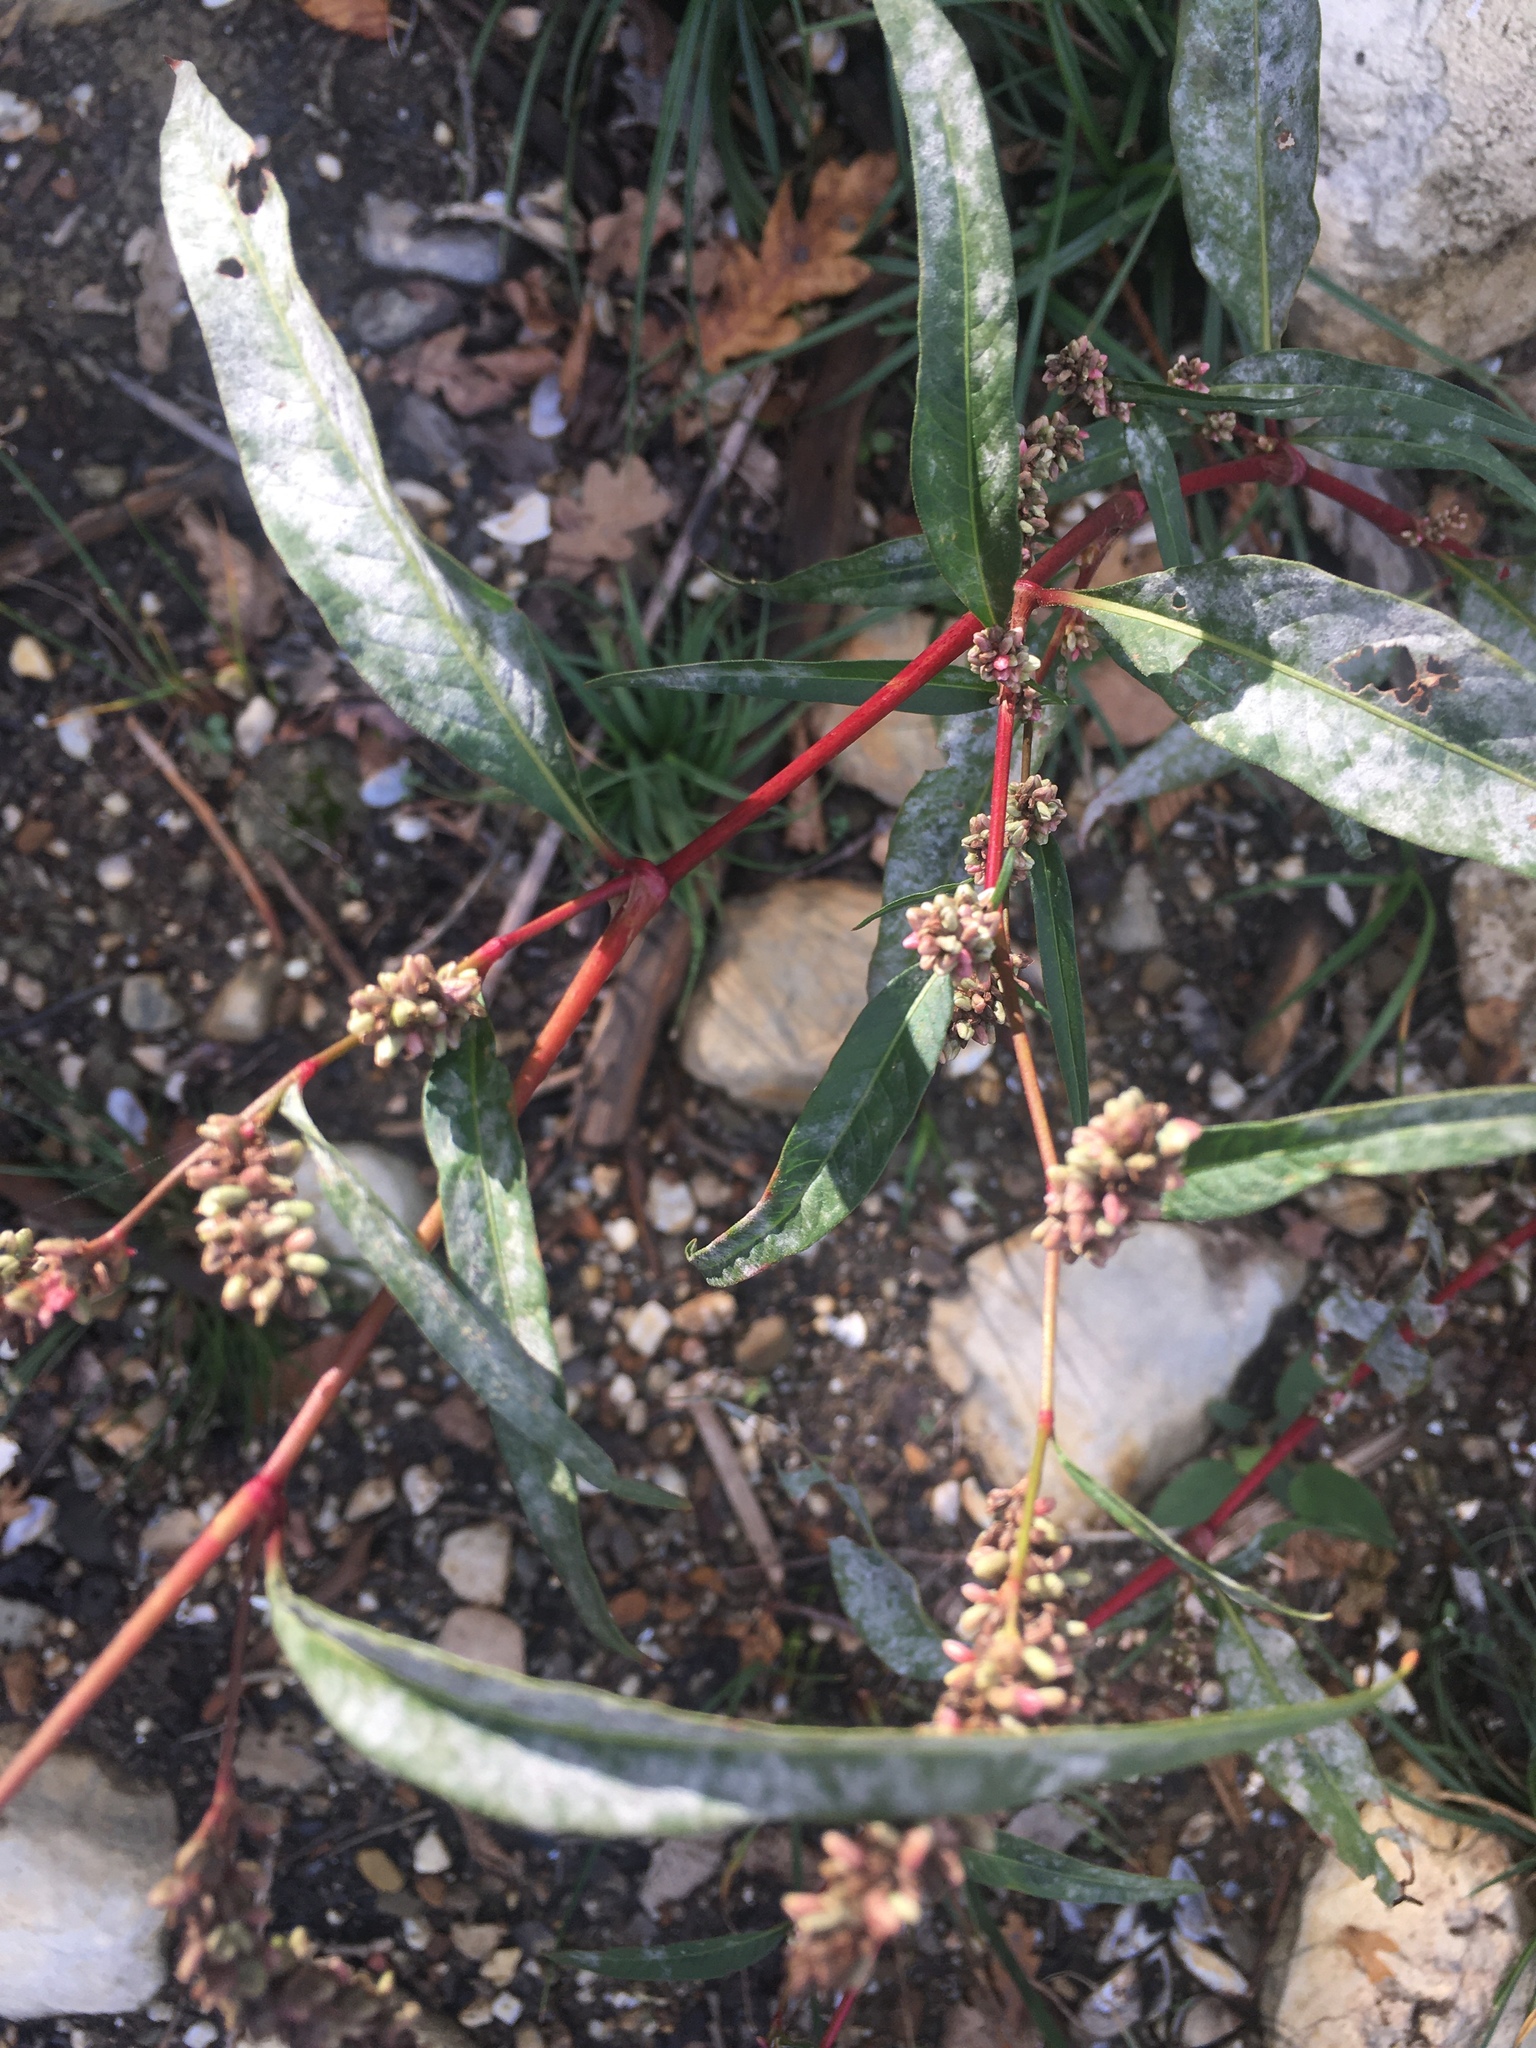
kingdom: Plantae
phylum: Tracheophyta
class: Magnoliopsida
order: Caryophyllales
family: Polygonaceae
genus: Persicaria
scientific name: Persicaria lapathifolia
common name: Curlytop knotweed
